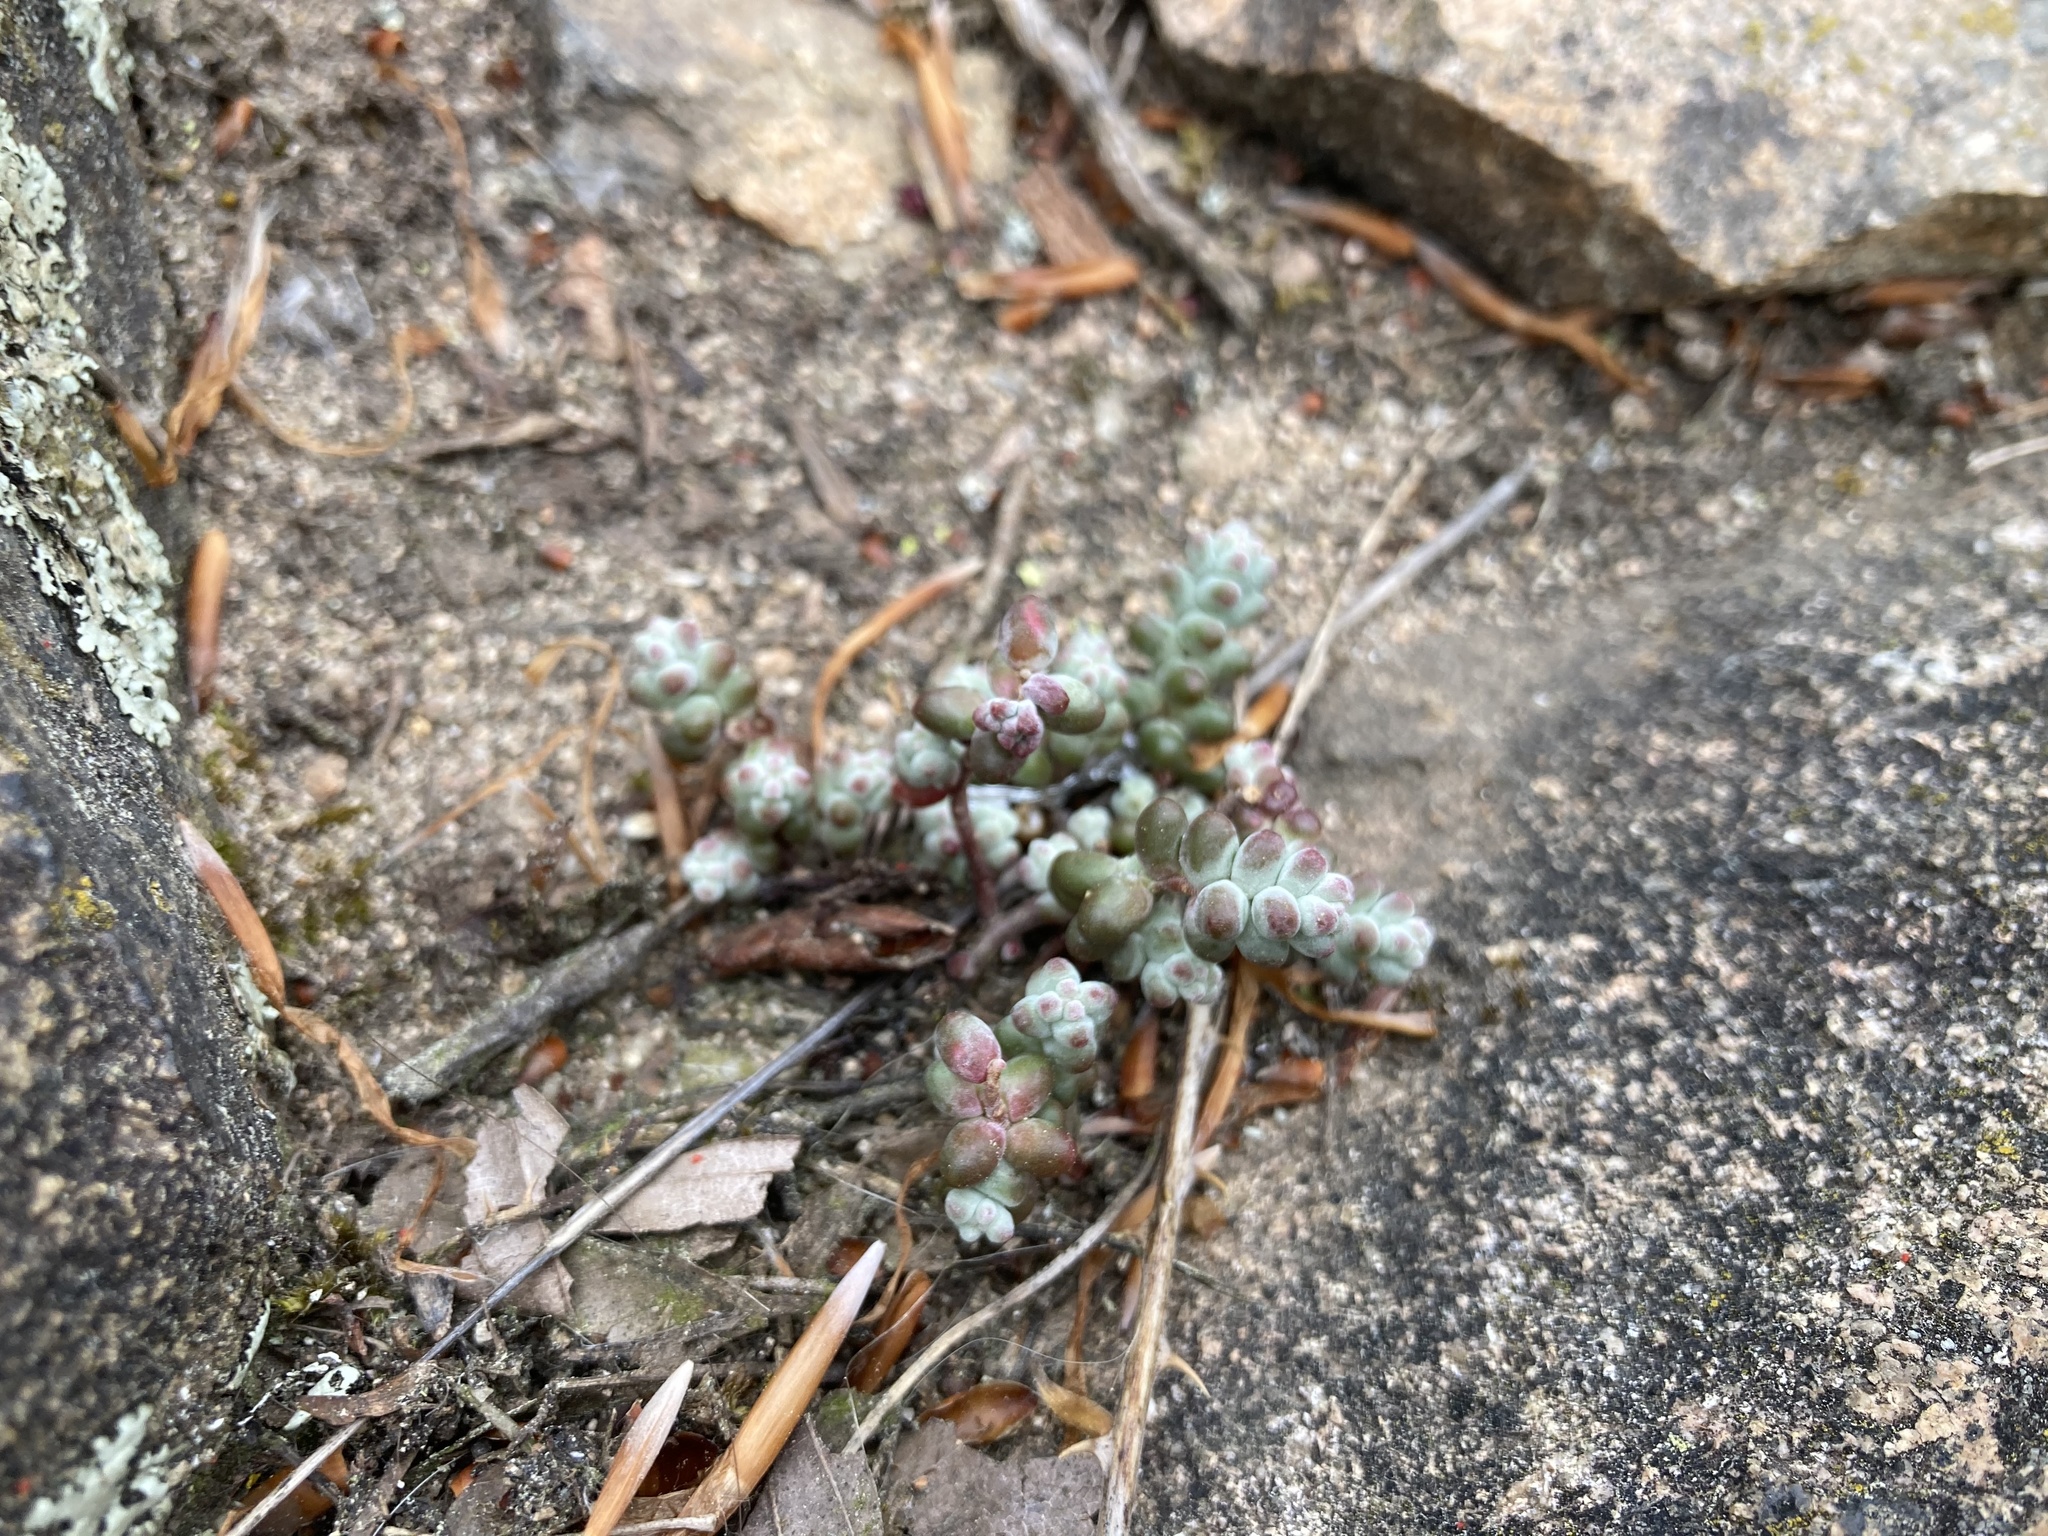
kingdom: Plantae
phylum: Tracheophyta
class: Magnoliopsida
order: Saxifragales
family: Crassulaceae
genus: Sedum
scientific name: Sedum brevifolium
